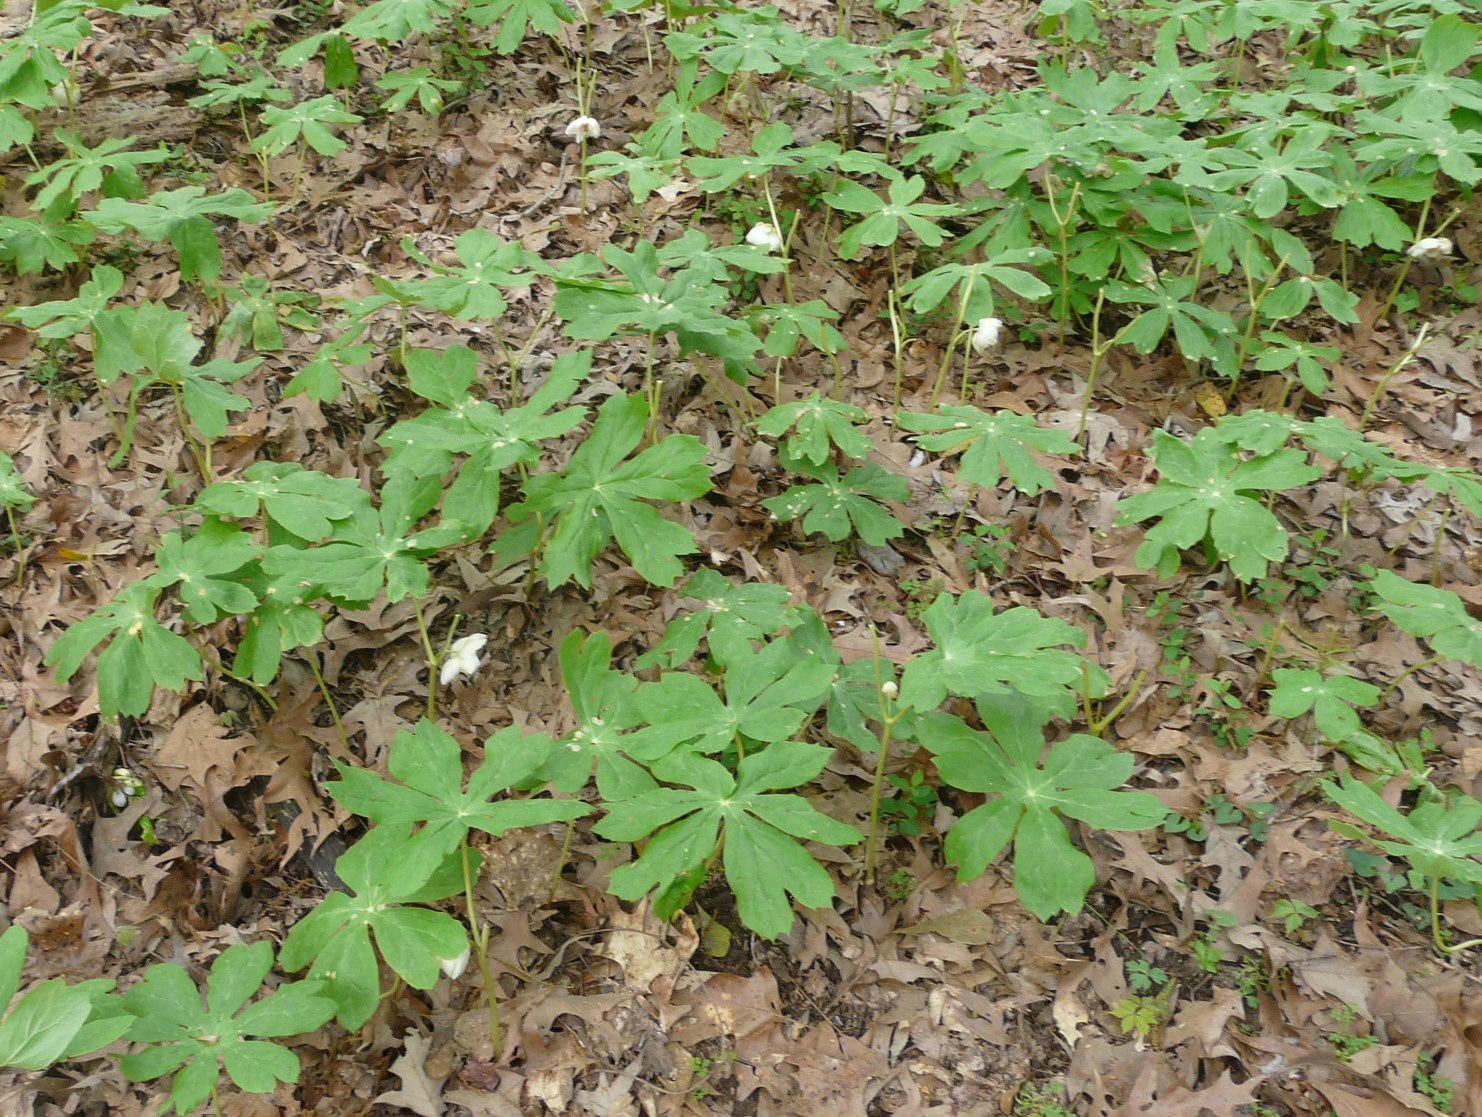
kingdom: Plantae
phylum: Tracheophyta
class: Magnoliopsida
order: Ranunculales
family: Berberidaceae
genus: Podophyllum
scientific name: Podophyllum peltatum
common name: Wild mandrake
